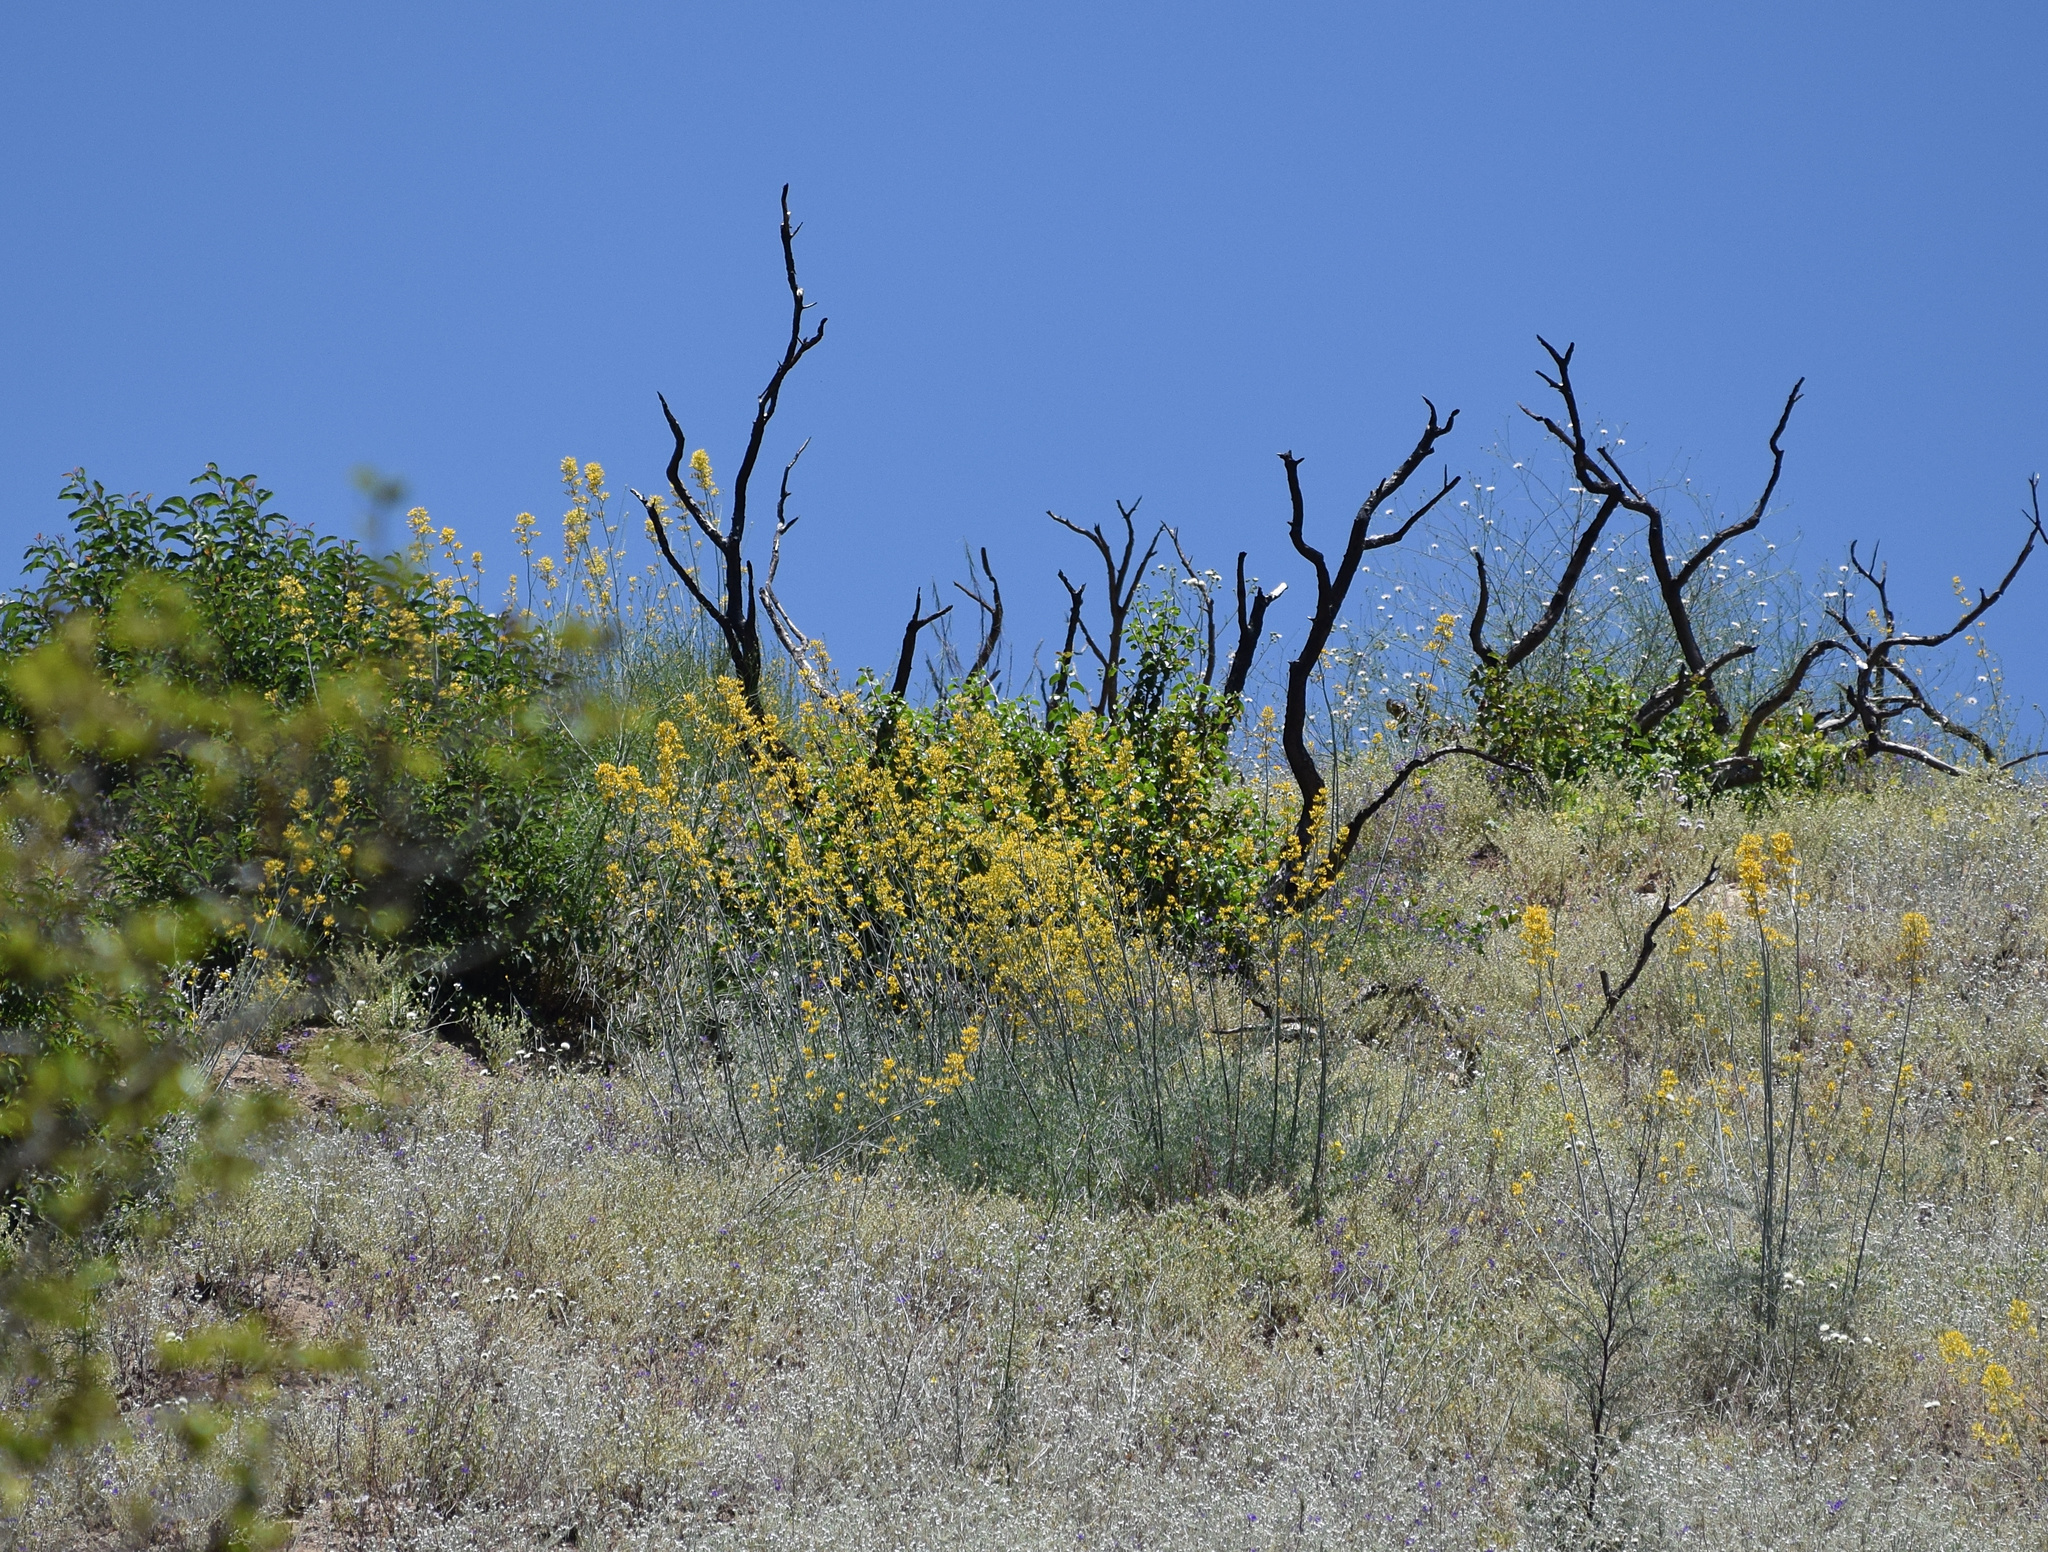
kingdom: Plantae
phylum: Tracheophyta
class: Magnoliopsida
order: Ranunculales
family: Papaveraceae
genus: Ehrendorferia
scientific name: Ehrendorferia chrysantha
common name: Golden eardrops
